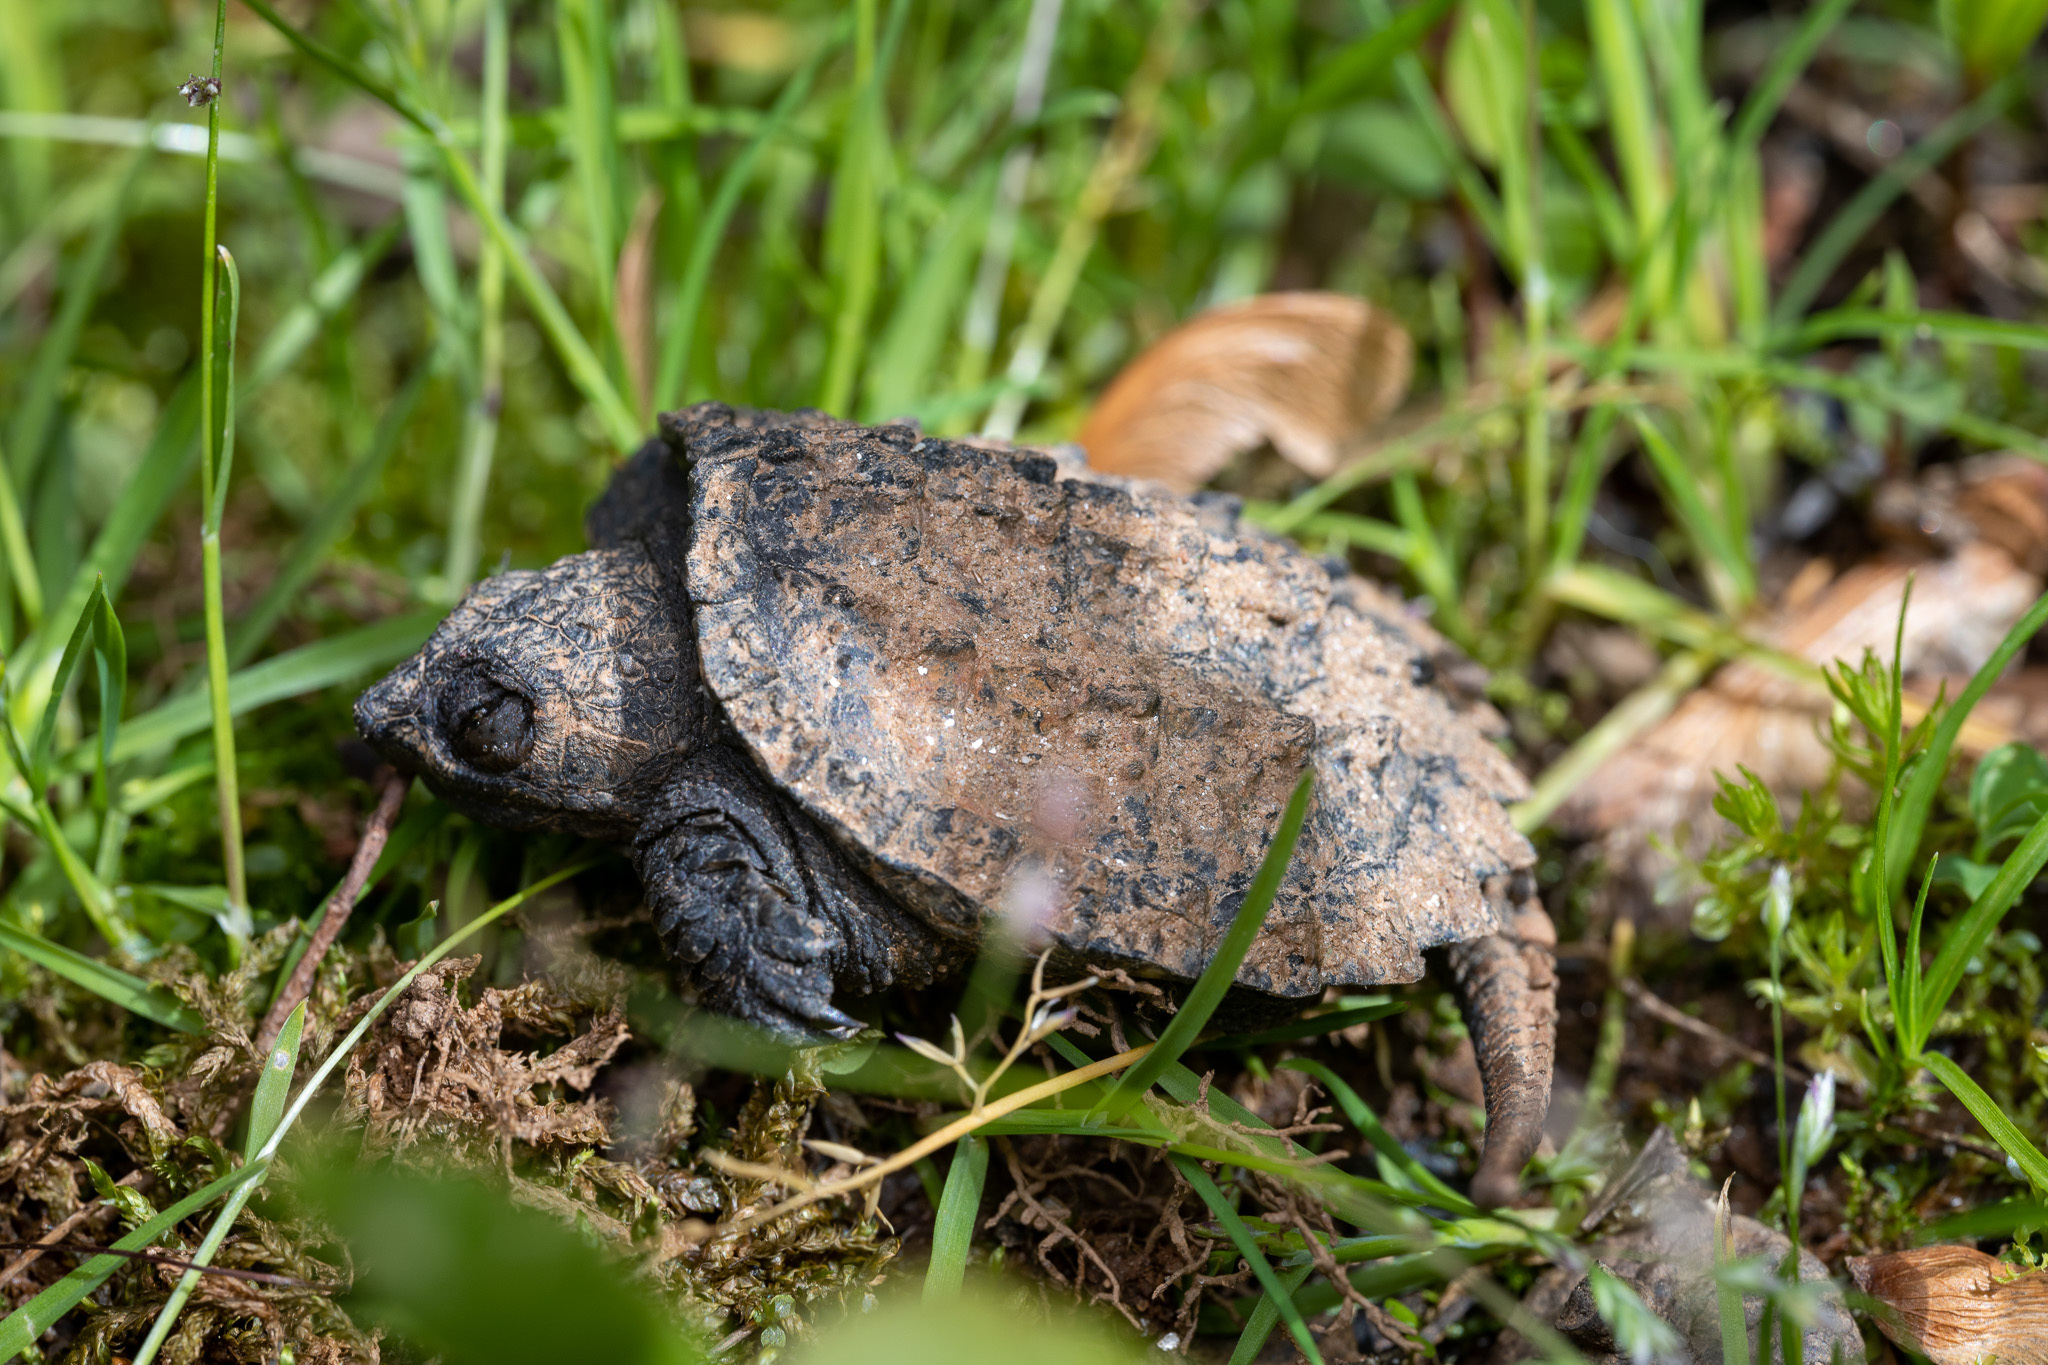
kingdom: Animalia
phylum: Chordata
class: Testudines
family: Chelydridae
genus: Chelydra
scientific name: Chelydra serpentina
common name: Common snapping turtle
